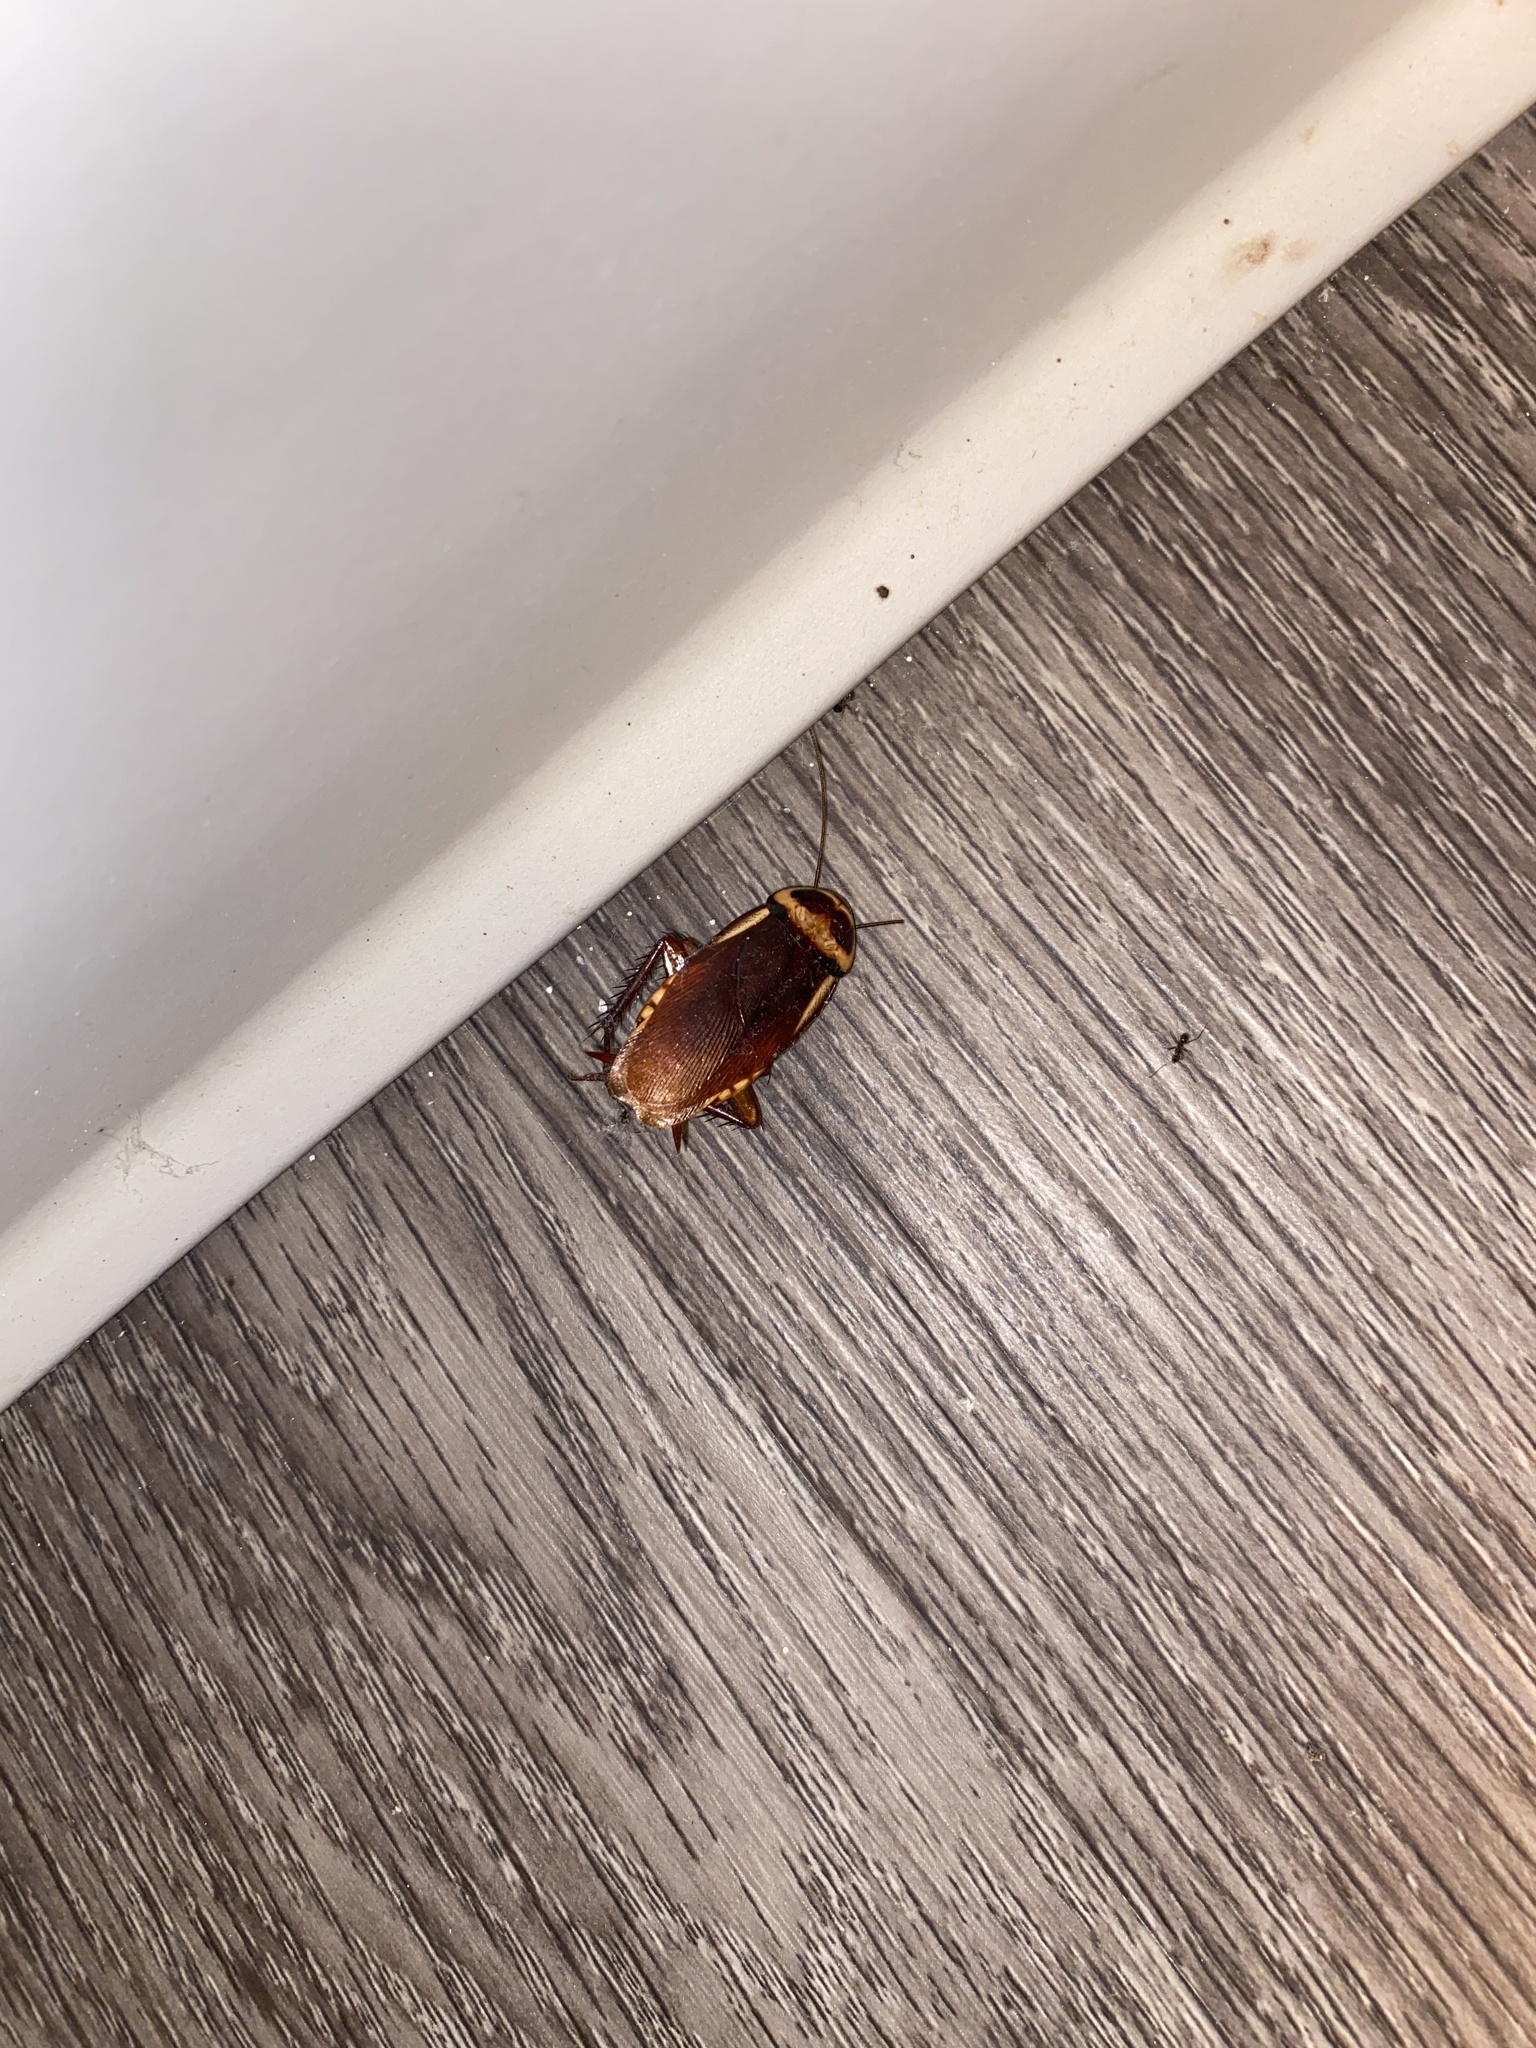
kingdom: Animalia
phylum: Arthropoda
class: Insecta
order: Blattodea
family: Blattidae
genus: Periplaneta
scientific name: Periplaneta australasiae
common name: Australian cockroach
